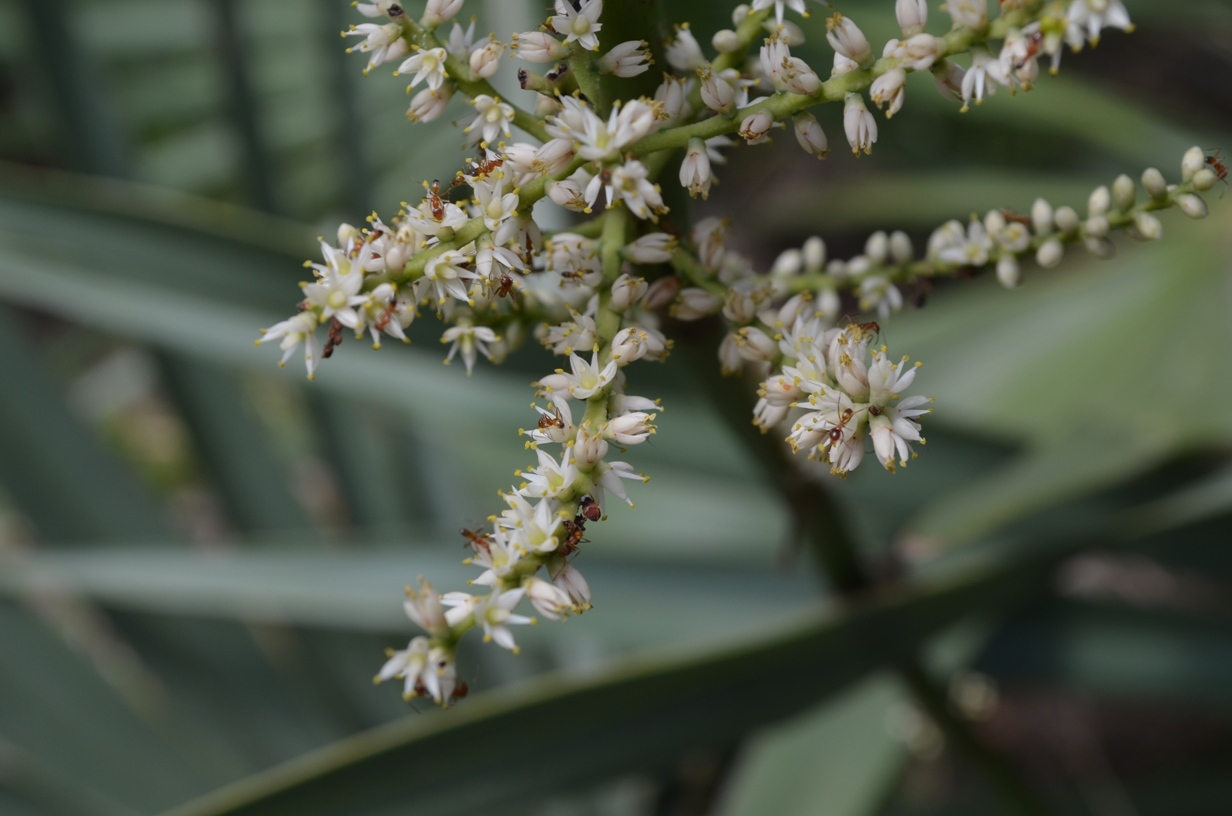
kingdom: Plantae
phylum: Tracheophyta
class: Liliopsida
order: Arecales
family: Arecaceae
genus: Sabal
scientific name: Sabal palmetto
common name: Blue palmetto
